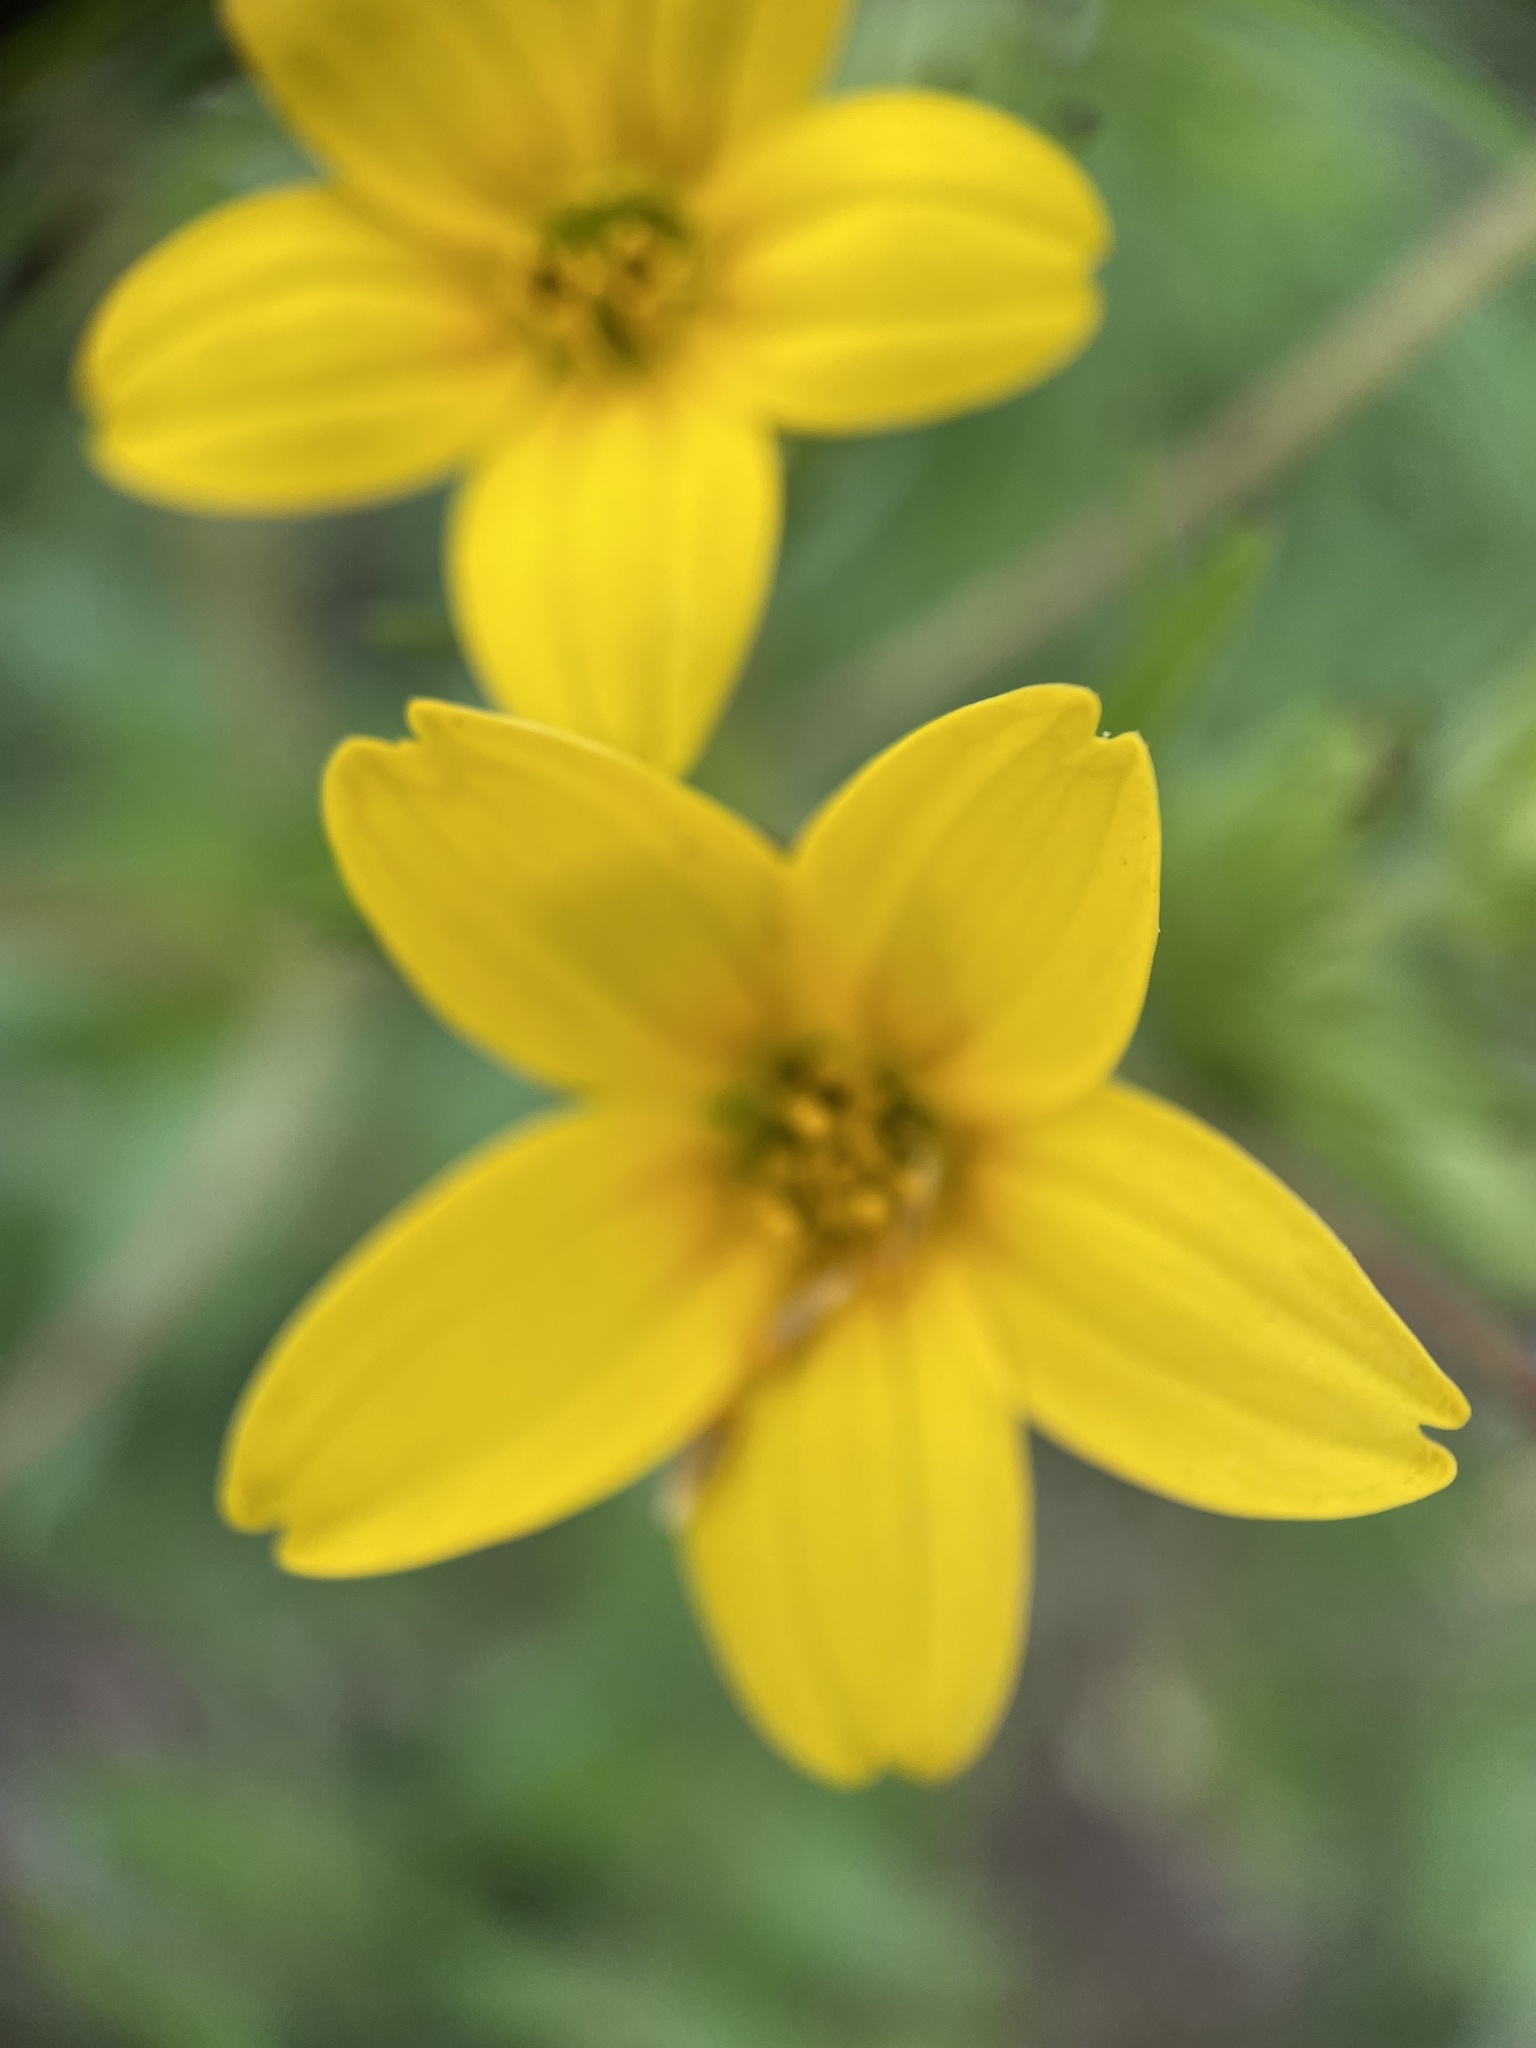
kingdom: Plantae
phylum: Tracheophyta
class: Magnoliopsida
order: Asterales
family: Asteraceae
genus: Lindheimera
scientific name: Lindheimera texana
